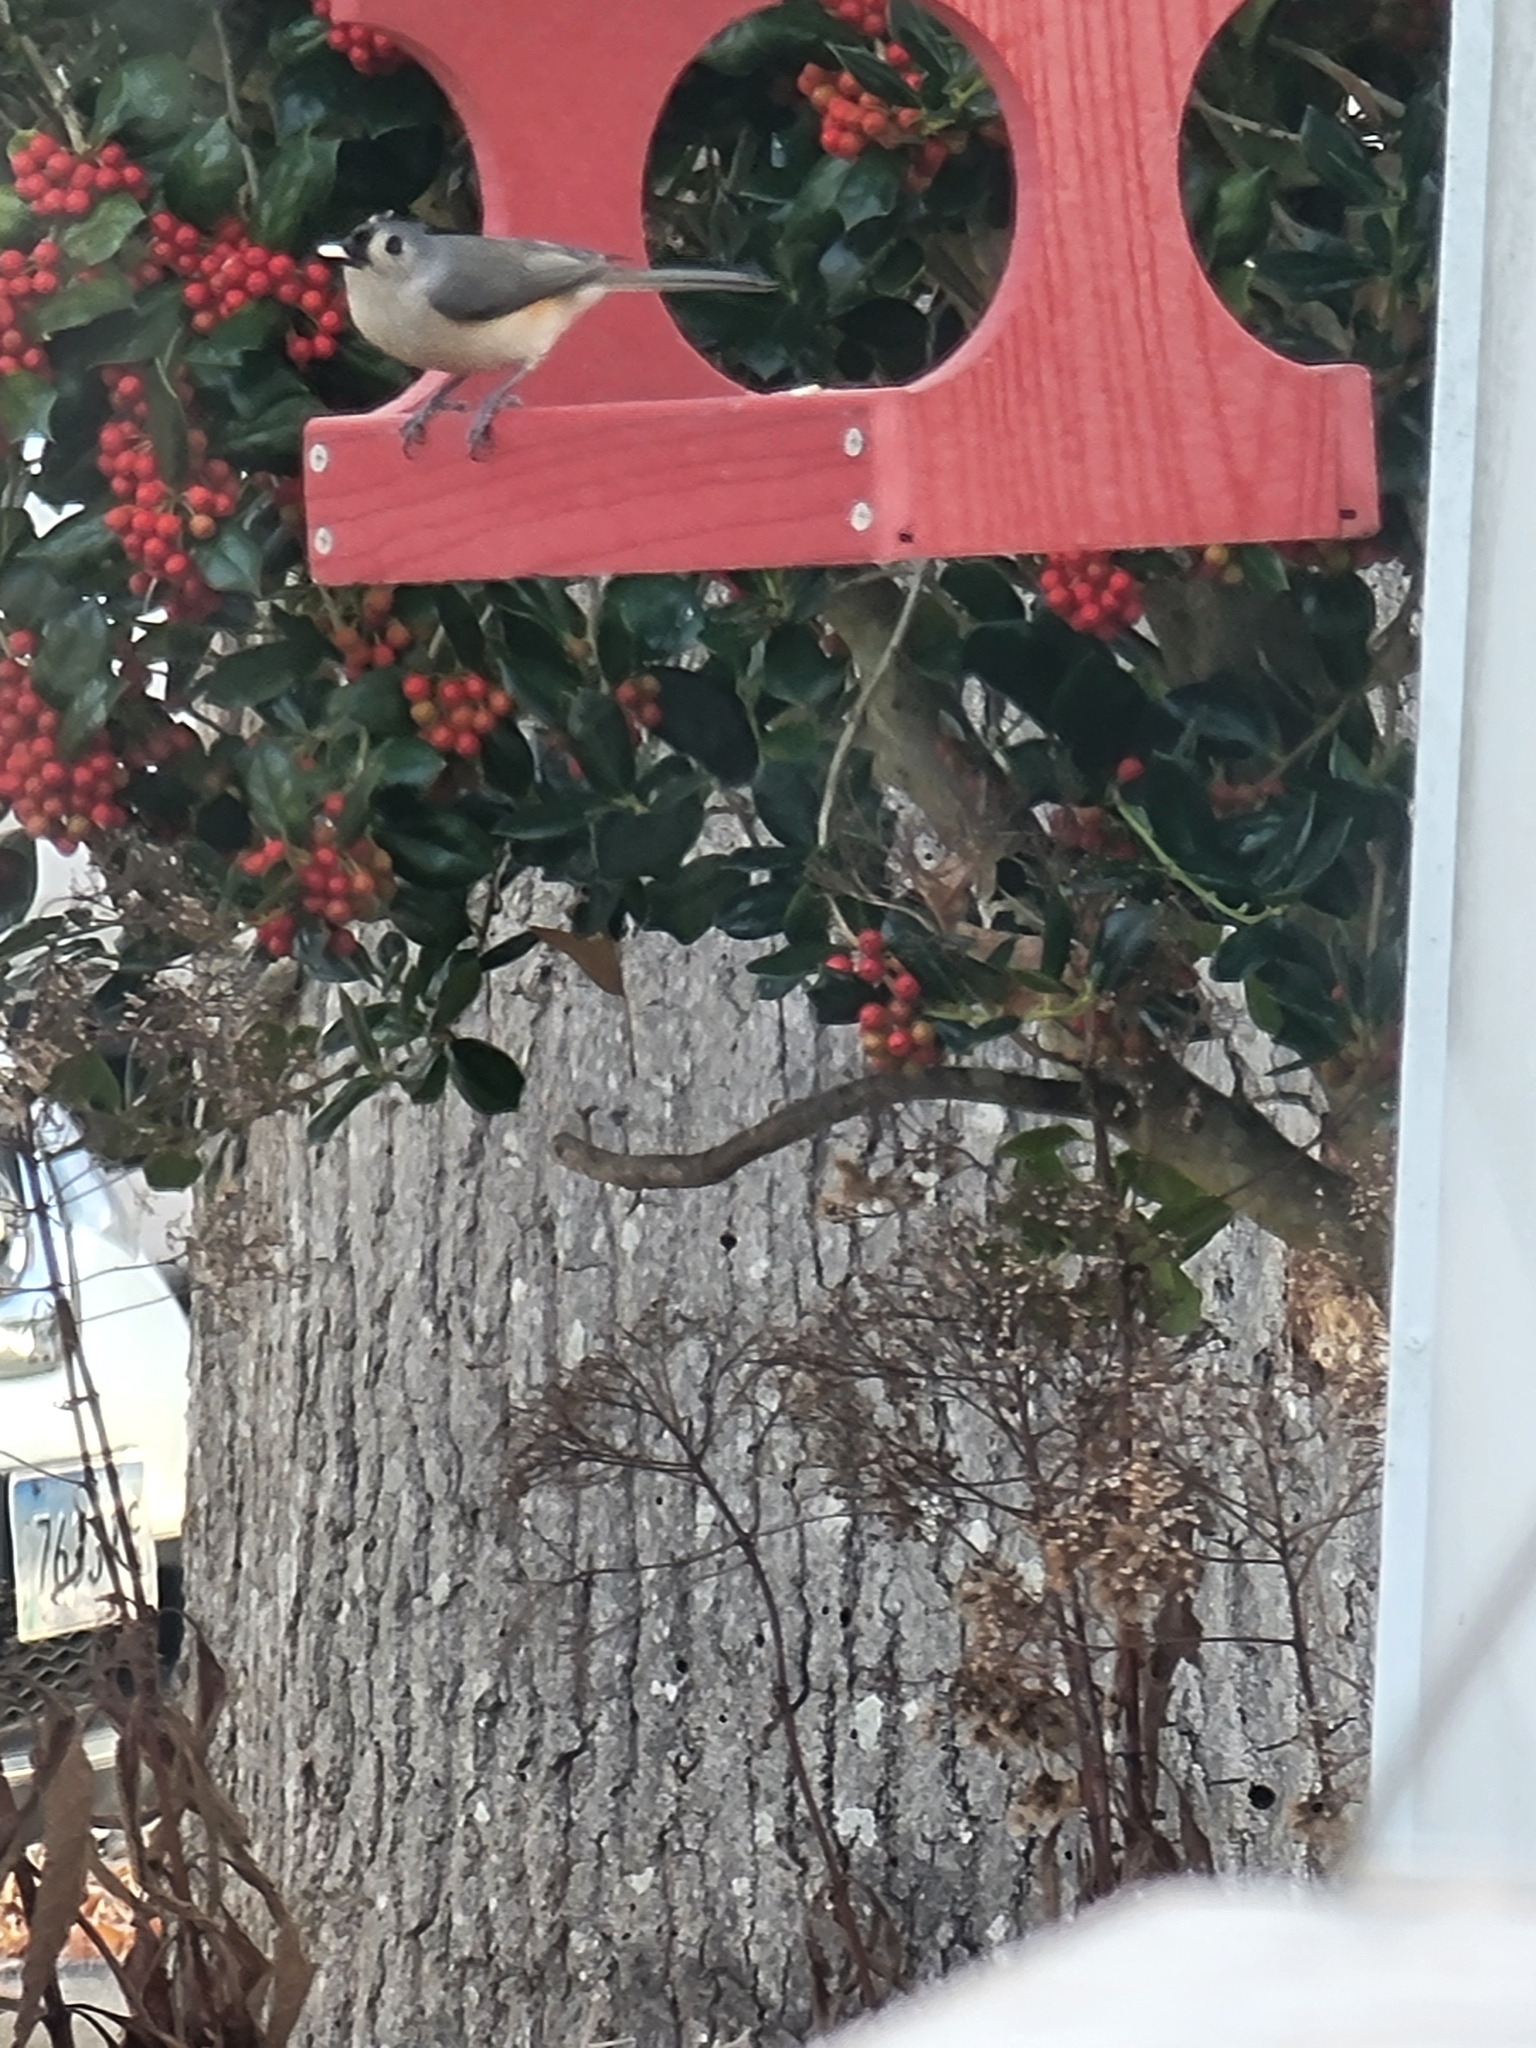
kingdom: Animalia
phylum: Chordata
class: Aves
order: Passeriformes
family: Paridae
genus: Baeolophus
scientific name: Baeolophus bicolor
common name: Tufted titmouse
